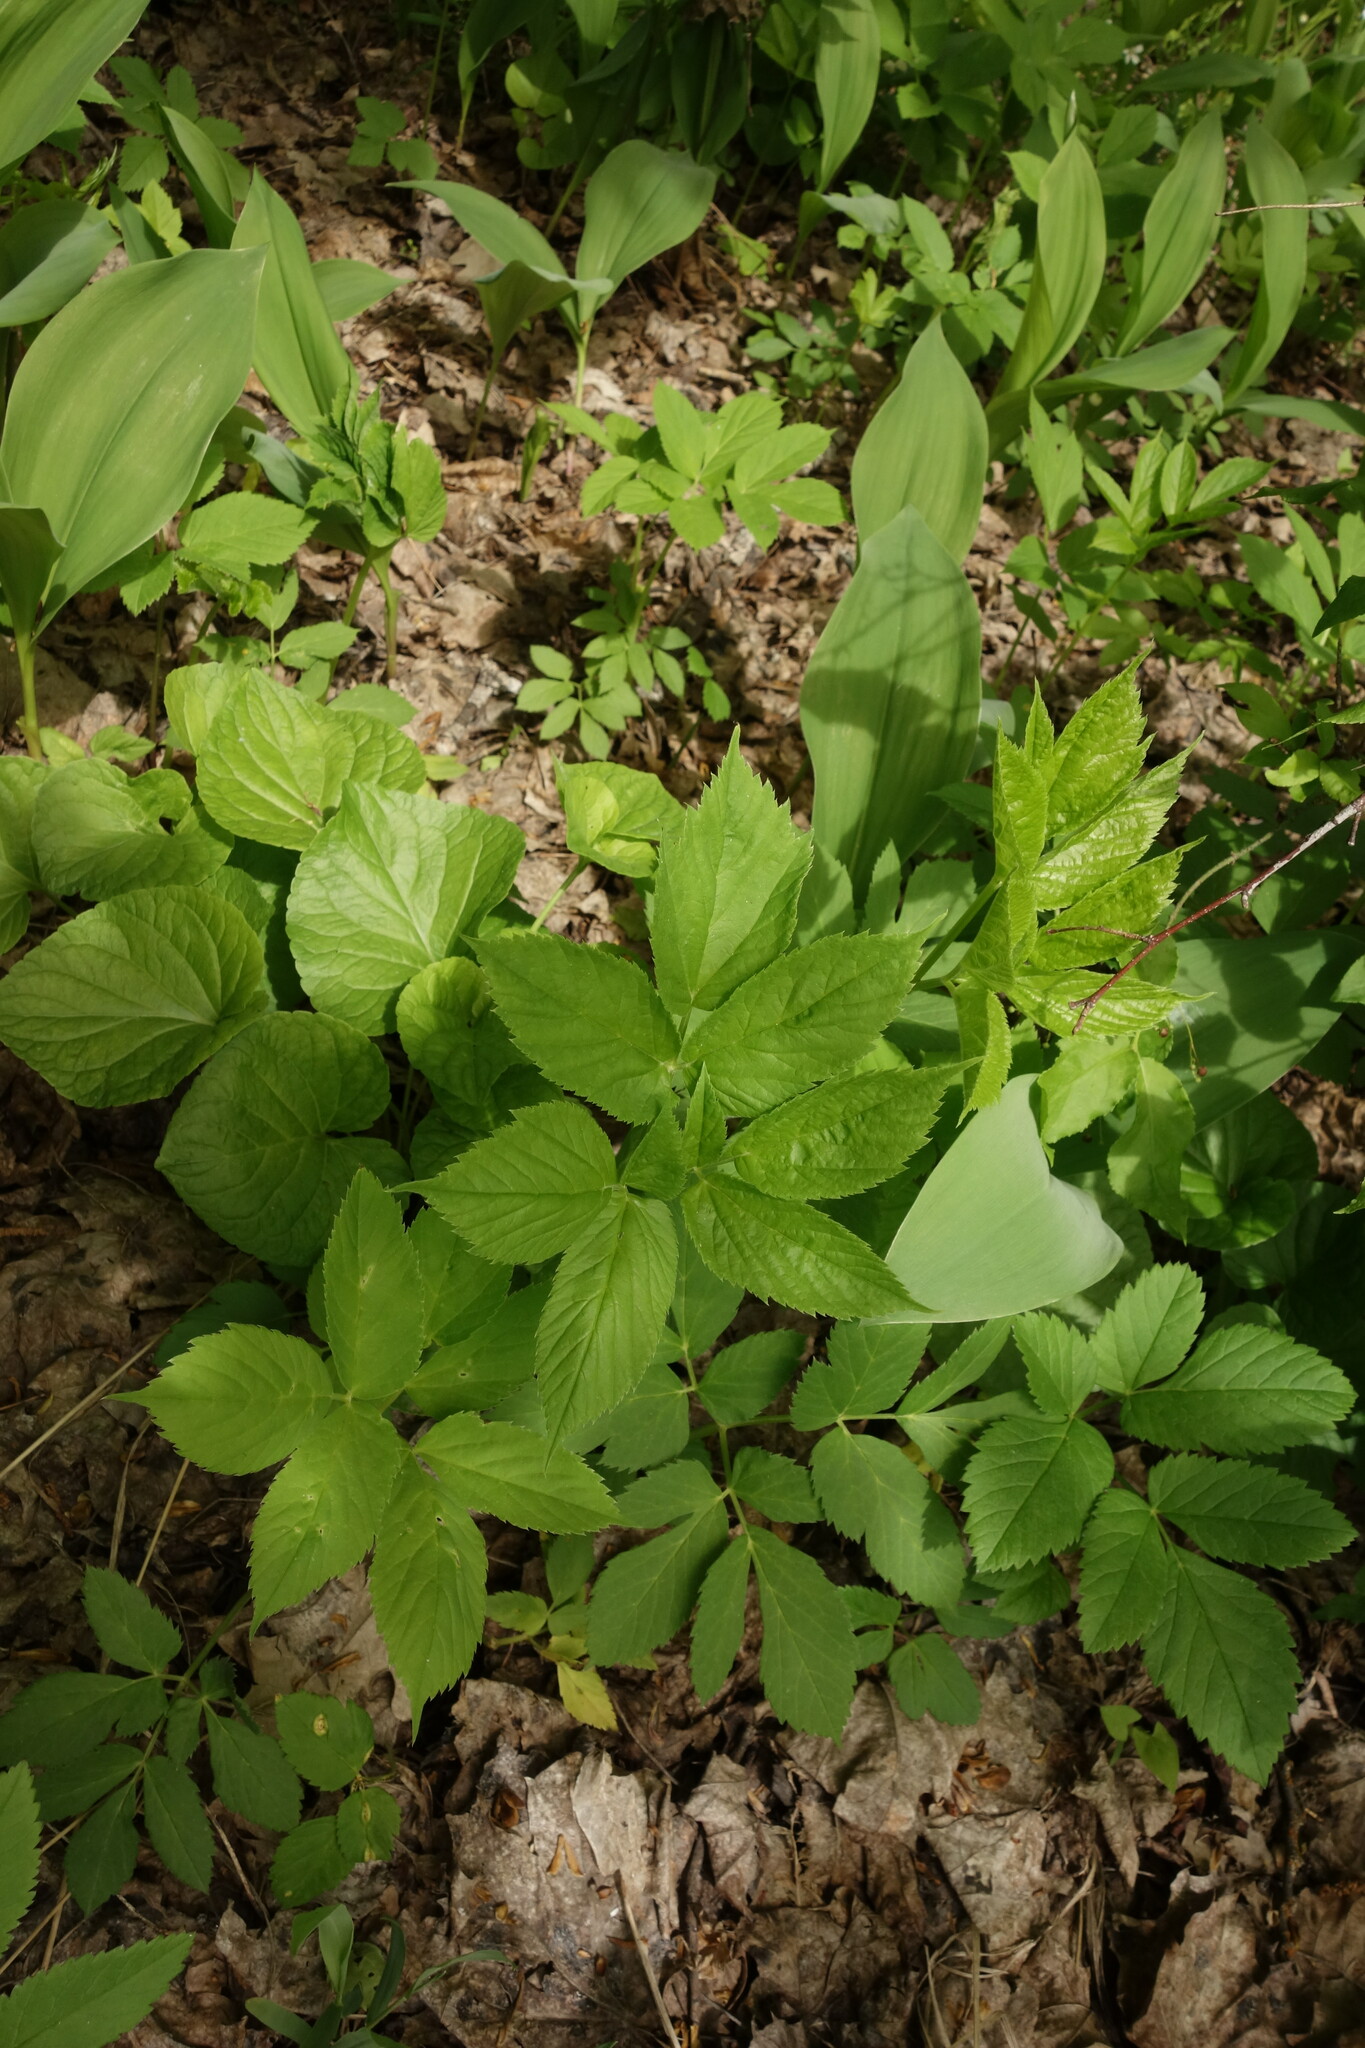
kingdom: Plantae
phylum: Tracheophyta
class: Magnoliopsida
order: Apiales
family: Apiaceae
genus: Aegopodium
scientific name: Aegopodium podagraria
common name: Ground-elder
